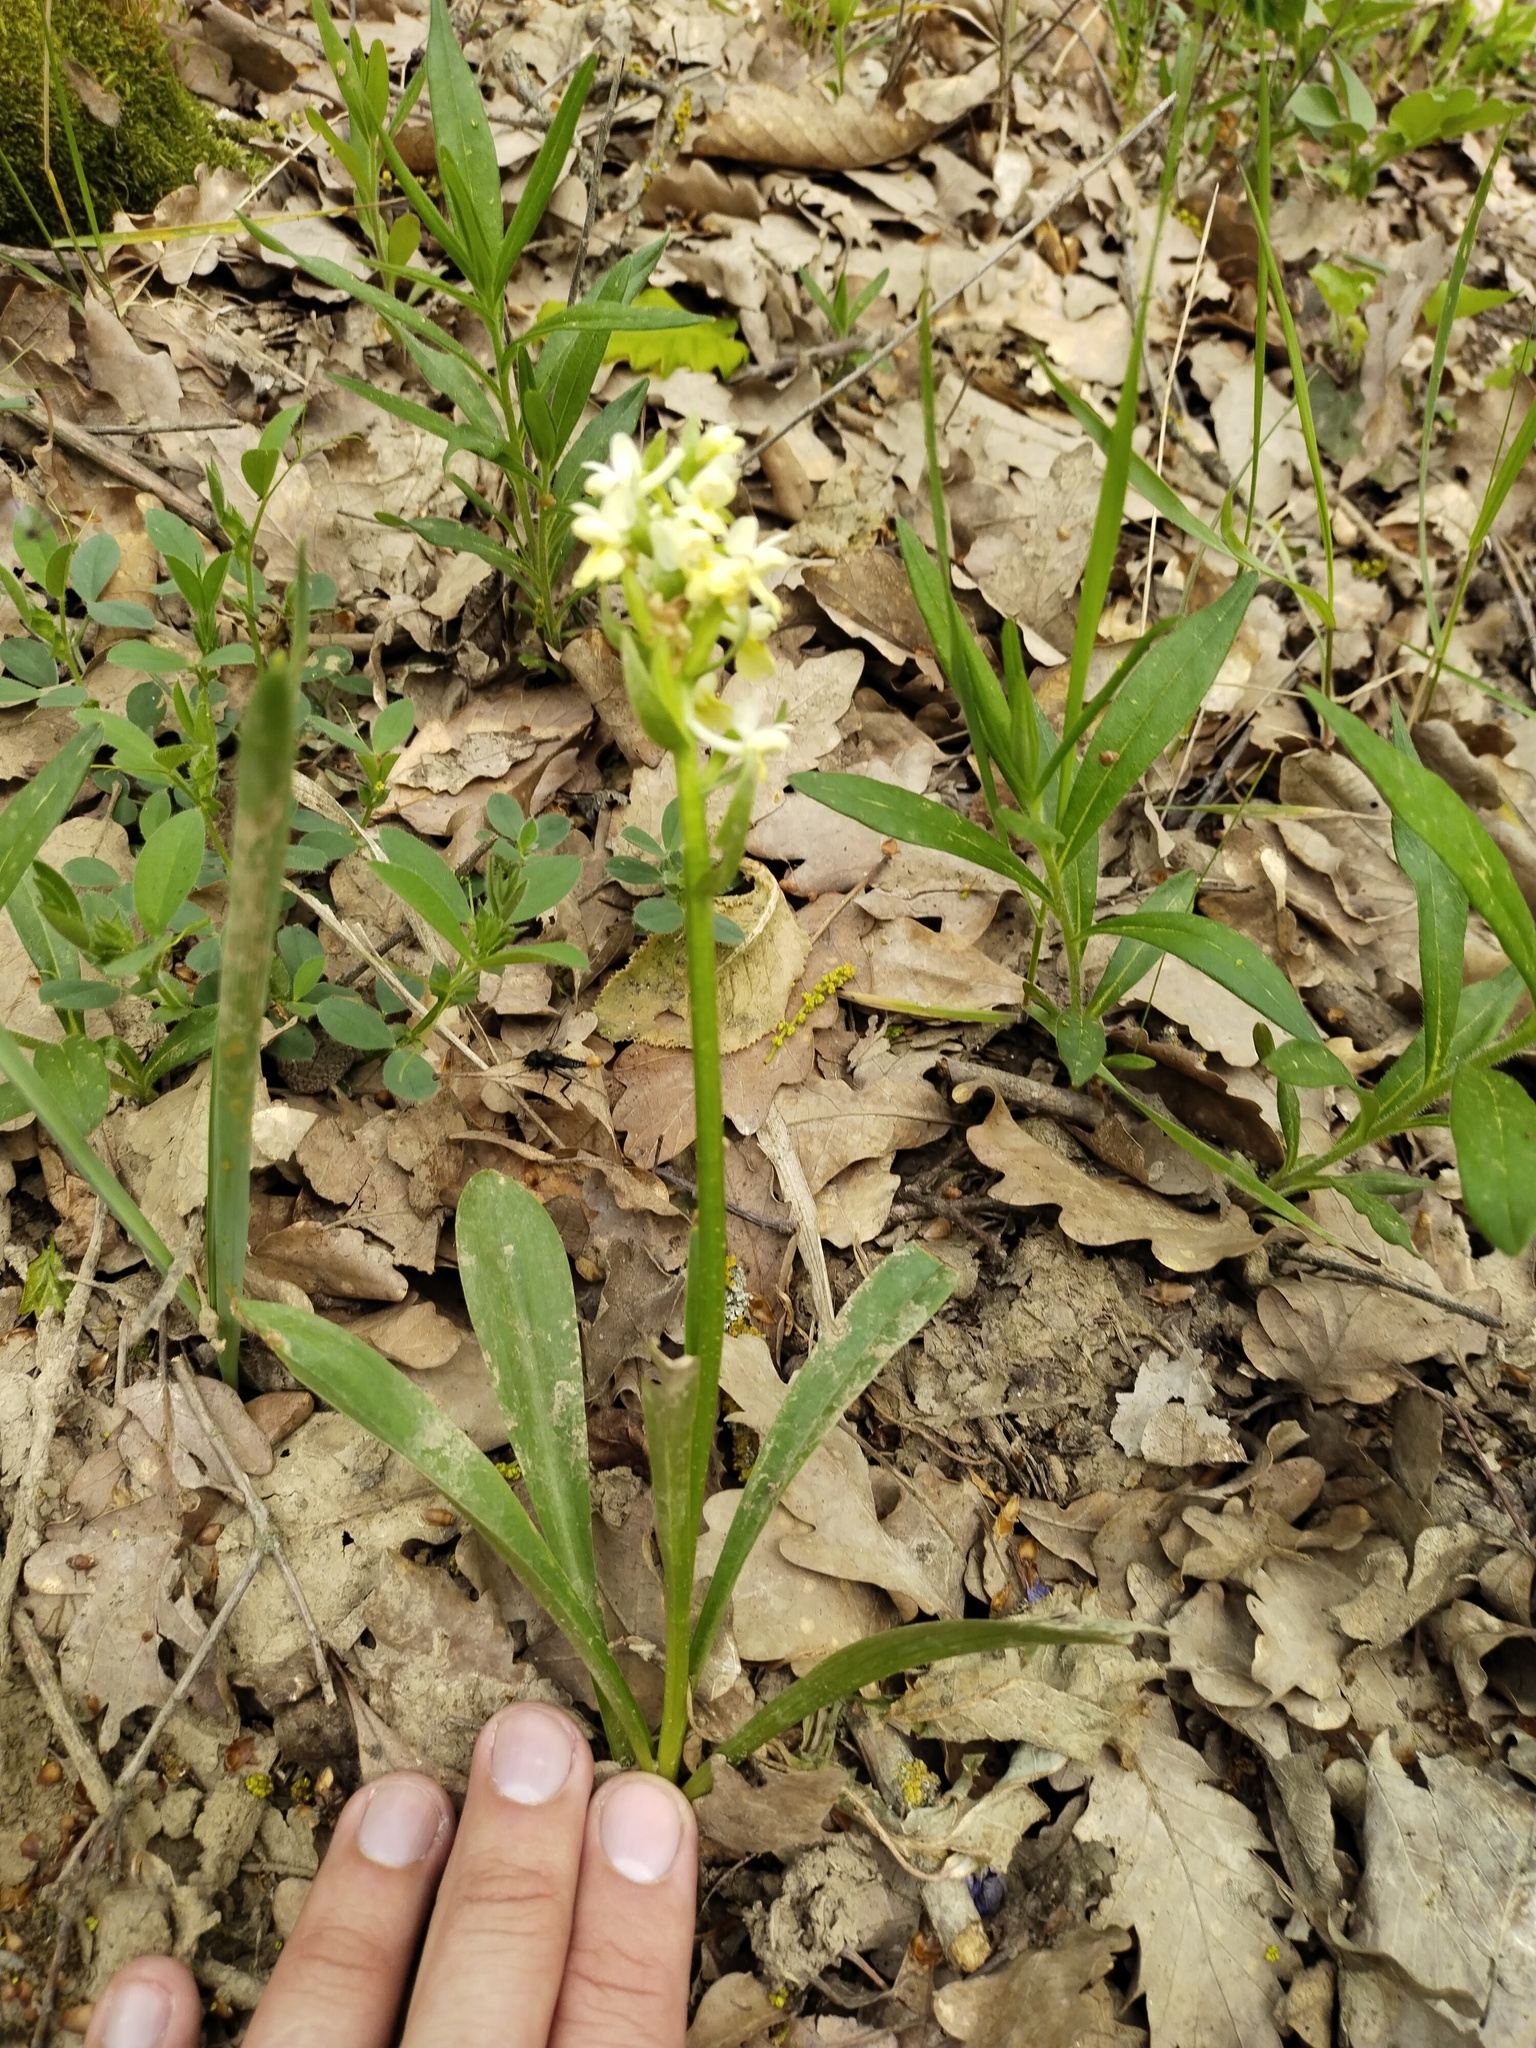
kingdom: Plantae
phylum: Tracheophyta
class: Liliopsida
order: Asparagales
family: Orchidaceae
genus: Dactylorhiza
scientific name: Dactylorhiza romana
